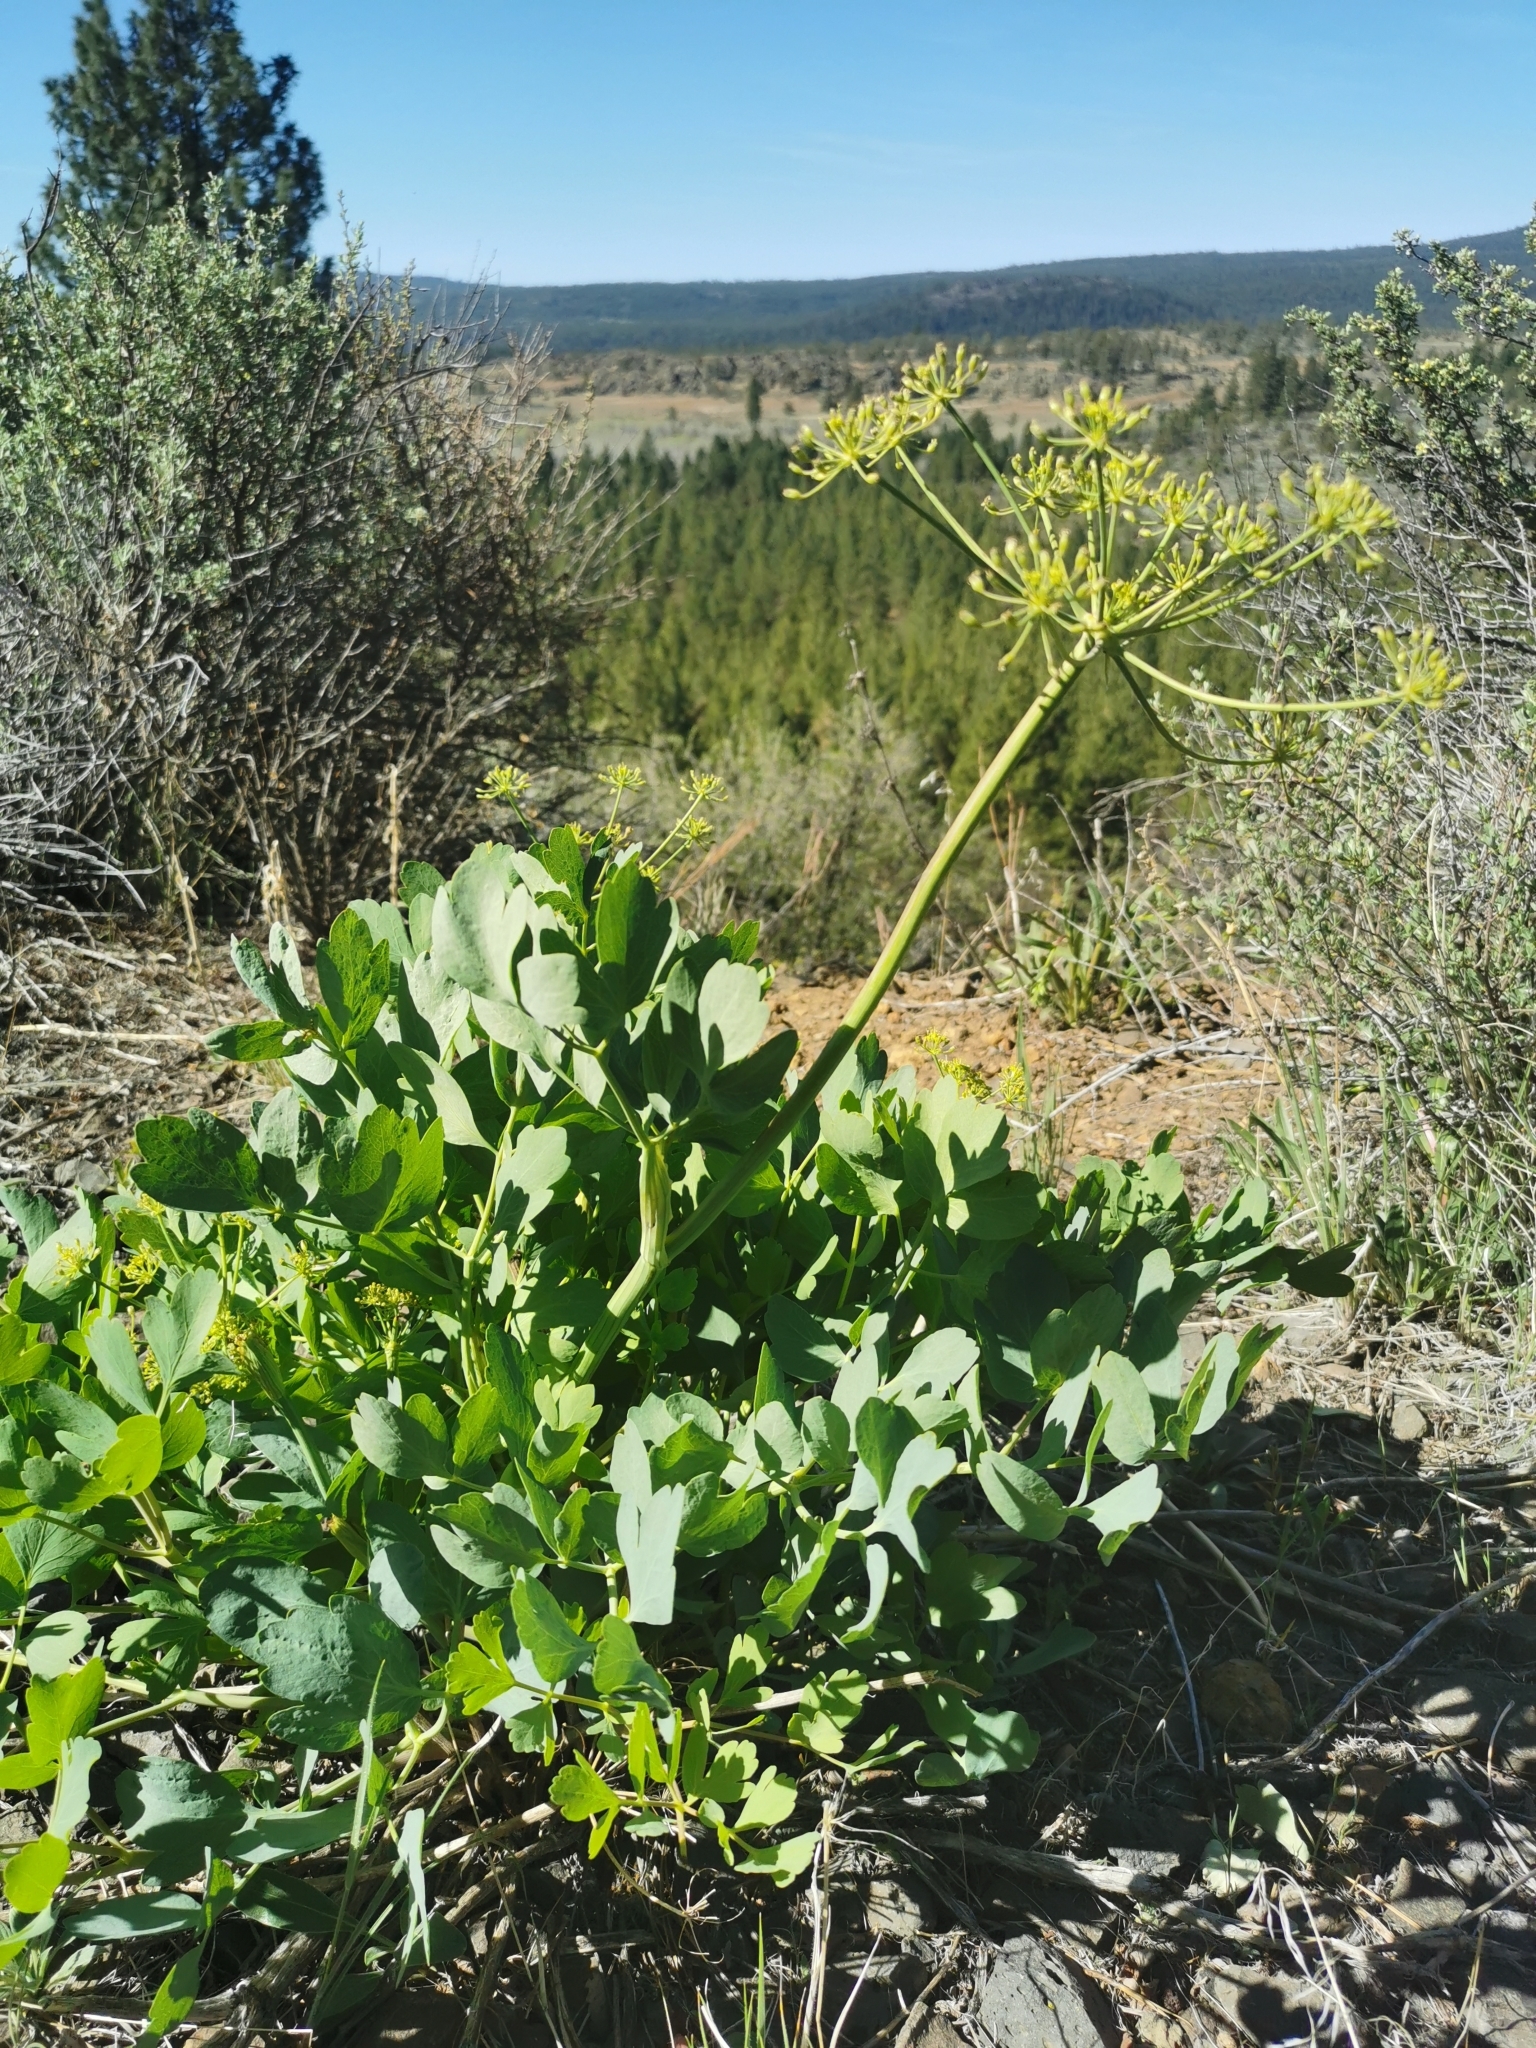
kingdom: Plantae
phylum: Tracheophyta
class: Magnoliopsida
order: Apiales
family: Apiaceae
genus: Lomatium
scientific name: Lomatium californicum
